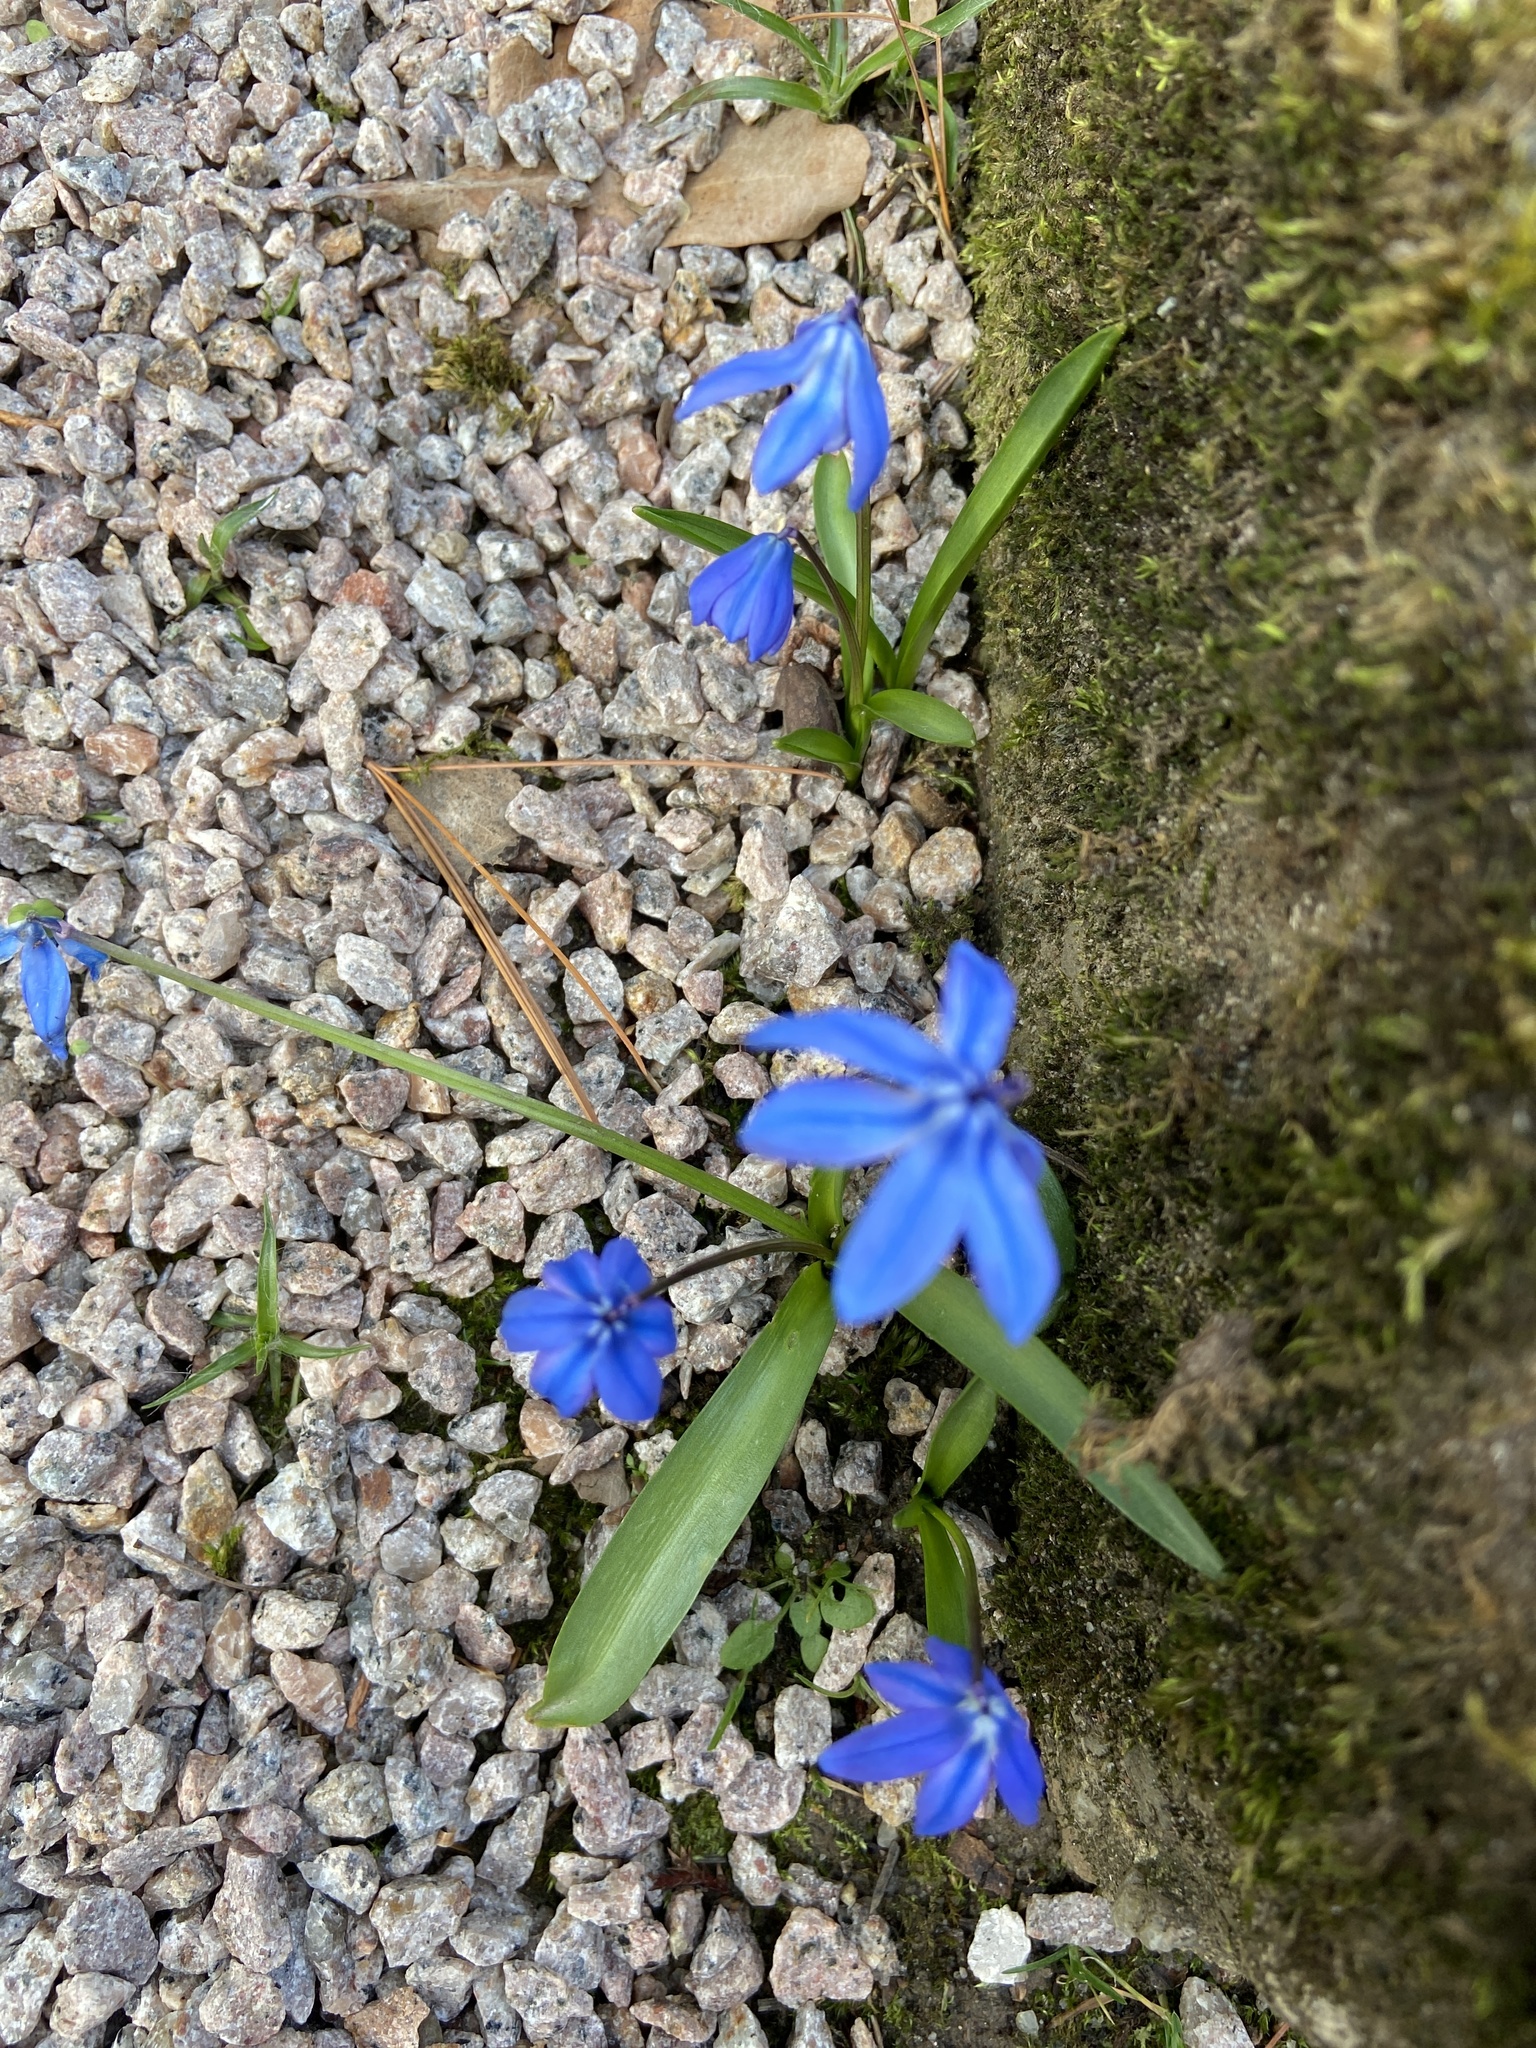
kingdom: Plantae
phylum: Tracheophyta
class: Liliopsida
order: Asparagales
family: Asparagaceae
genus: Scilla
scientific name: Scilla siberica
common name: Siberian squill
